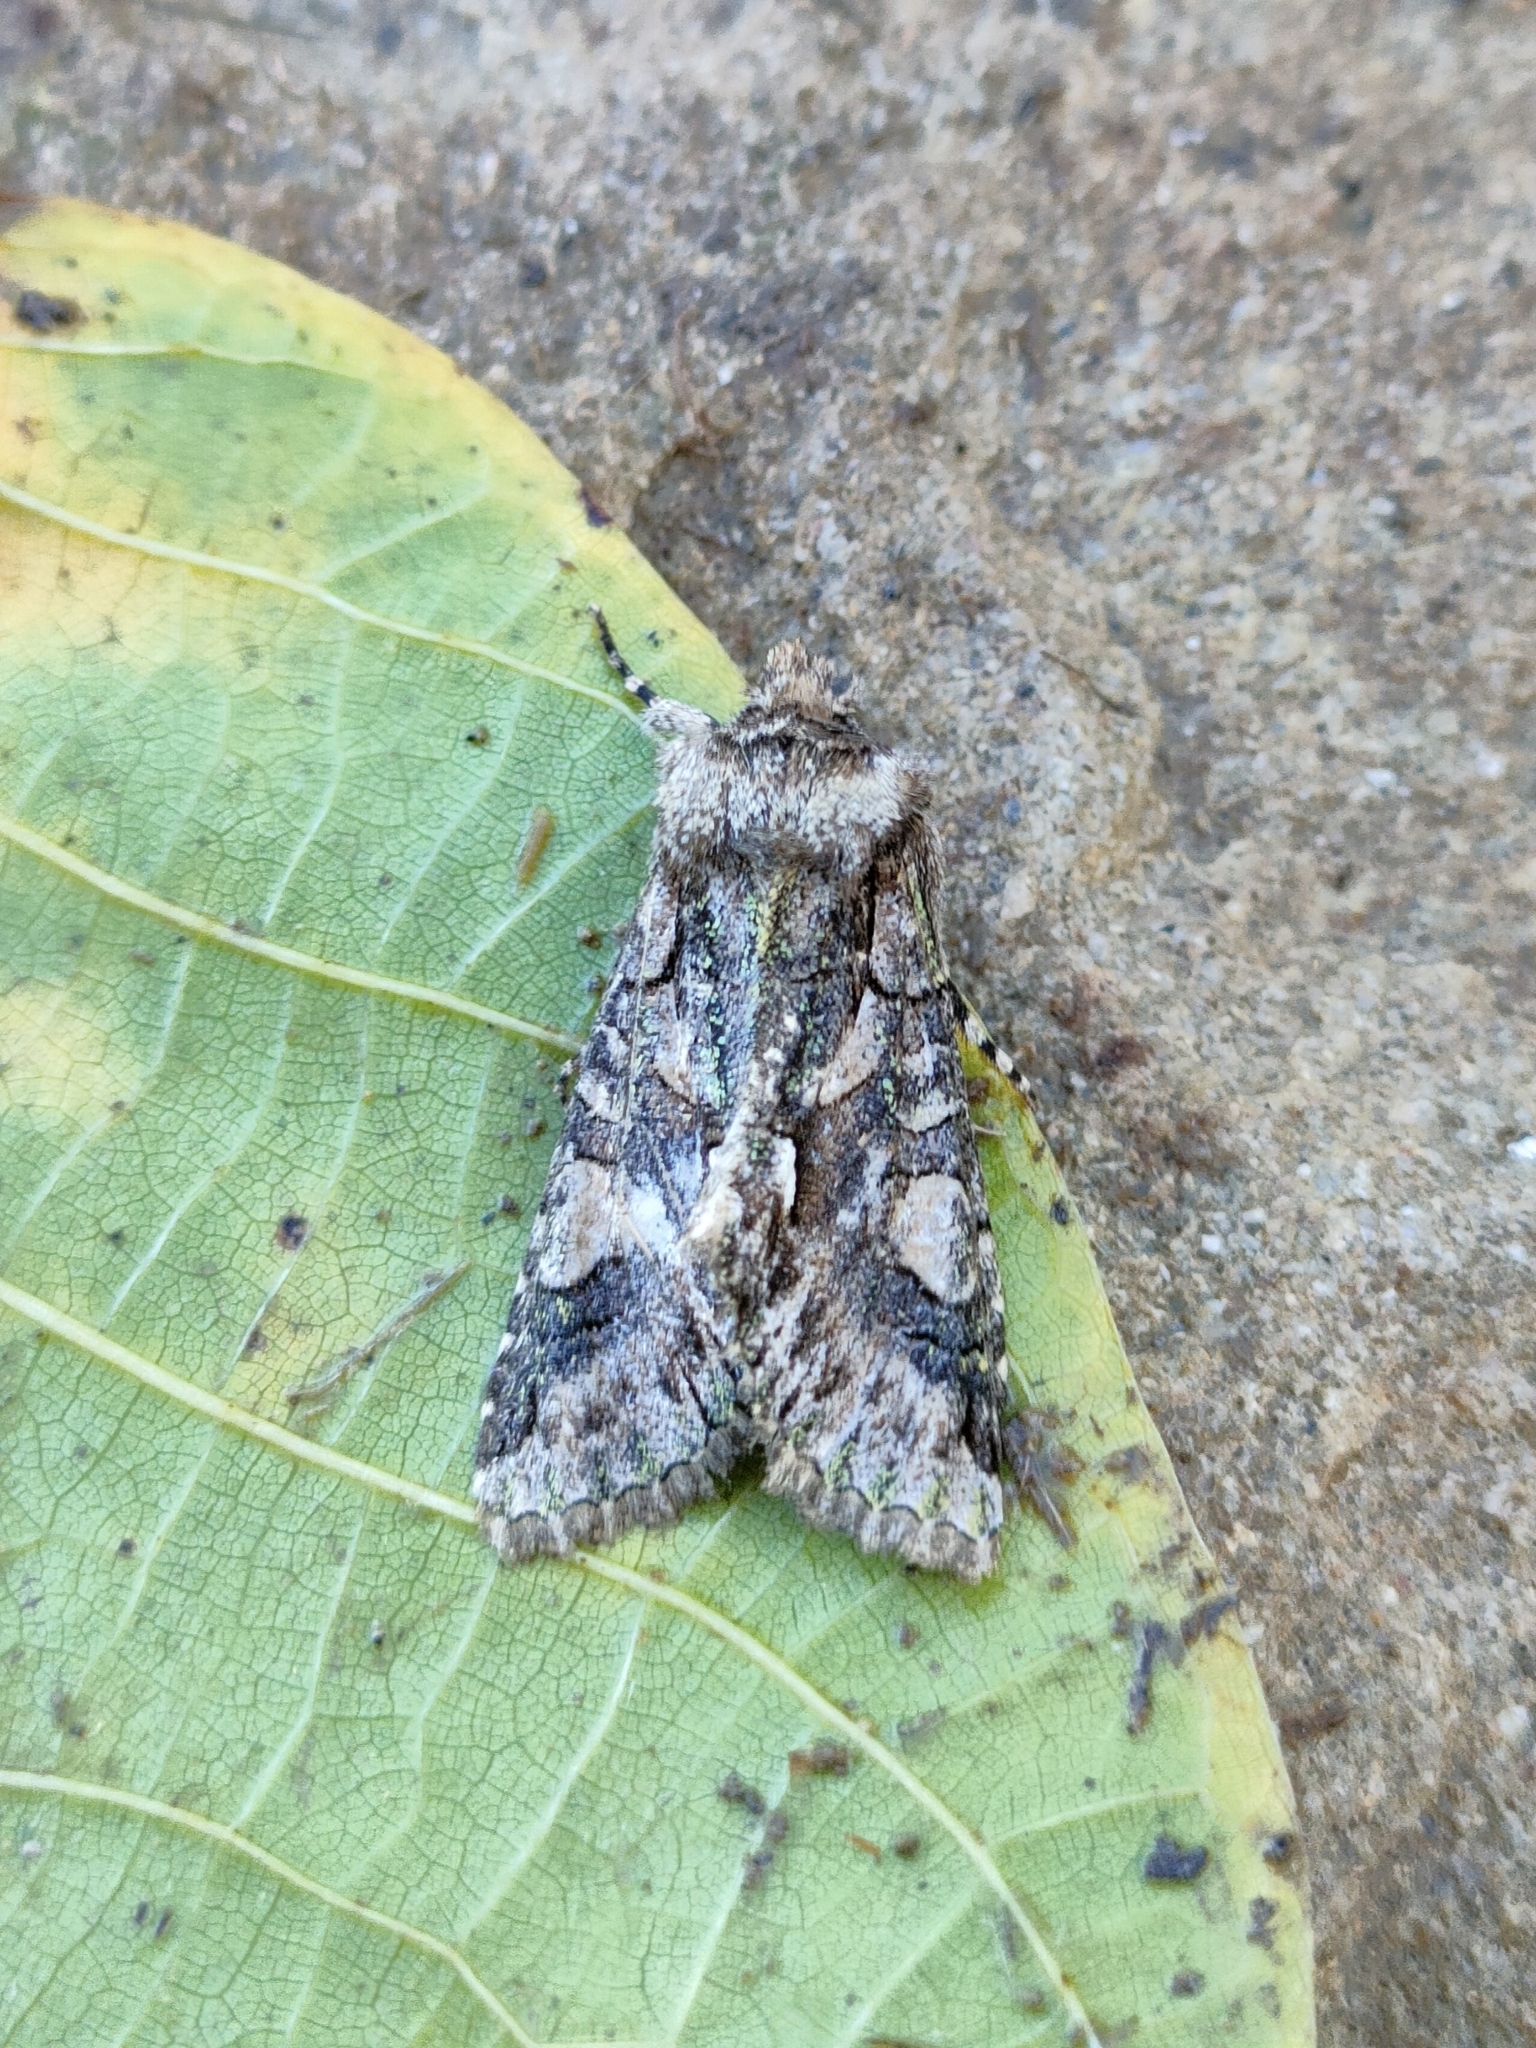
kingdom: Animalia
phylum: Arthropoda
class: Insecta
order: Lepidoptera
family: Noctuidae
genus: Allophyes
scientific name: Allophyes alfaroi
